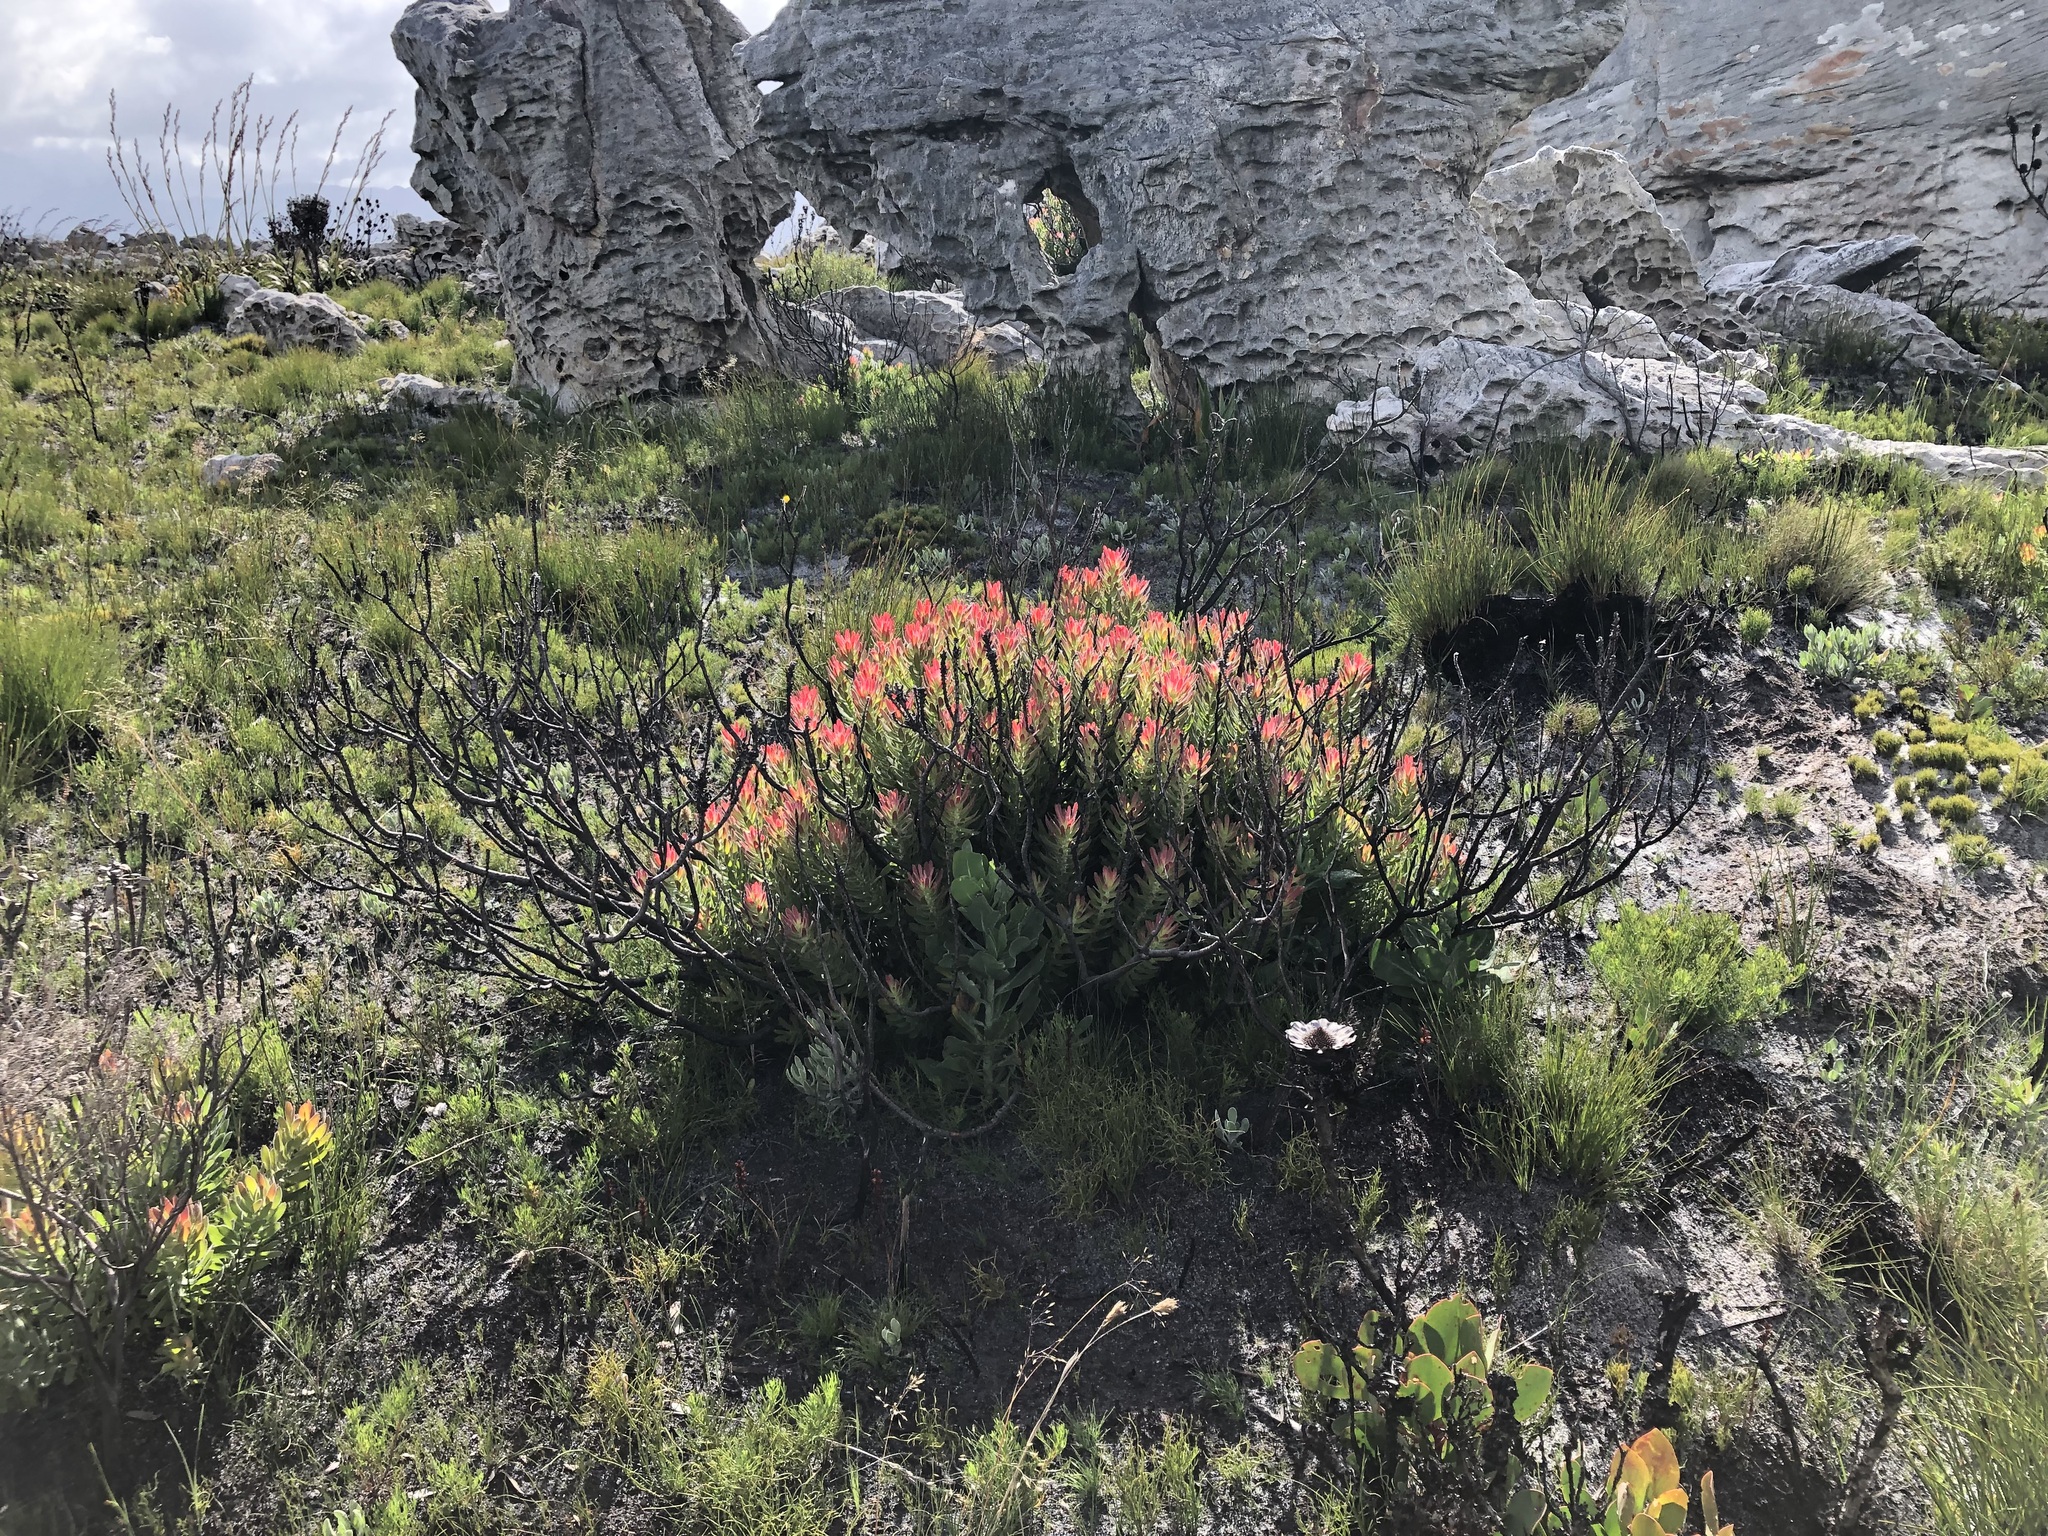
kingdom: Plantae
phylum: Tracheophyta
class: Magnoliopsida
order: Proteales
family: Proteaceae
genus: Mimetes
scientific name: Mimetes cucullatus
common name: Common pagoda
